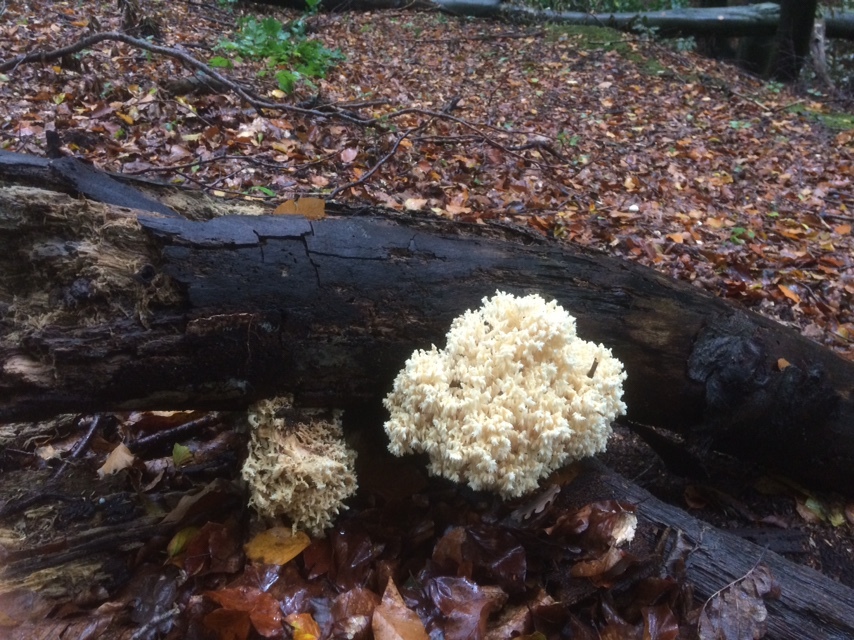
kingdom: Fungi
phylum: Basidiomycota
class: Agaricomycetes
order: Russulales
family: Hericiaceae
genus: Hericium
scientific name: Hericium coralloides
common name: Coral tooth
